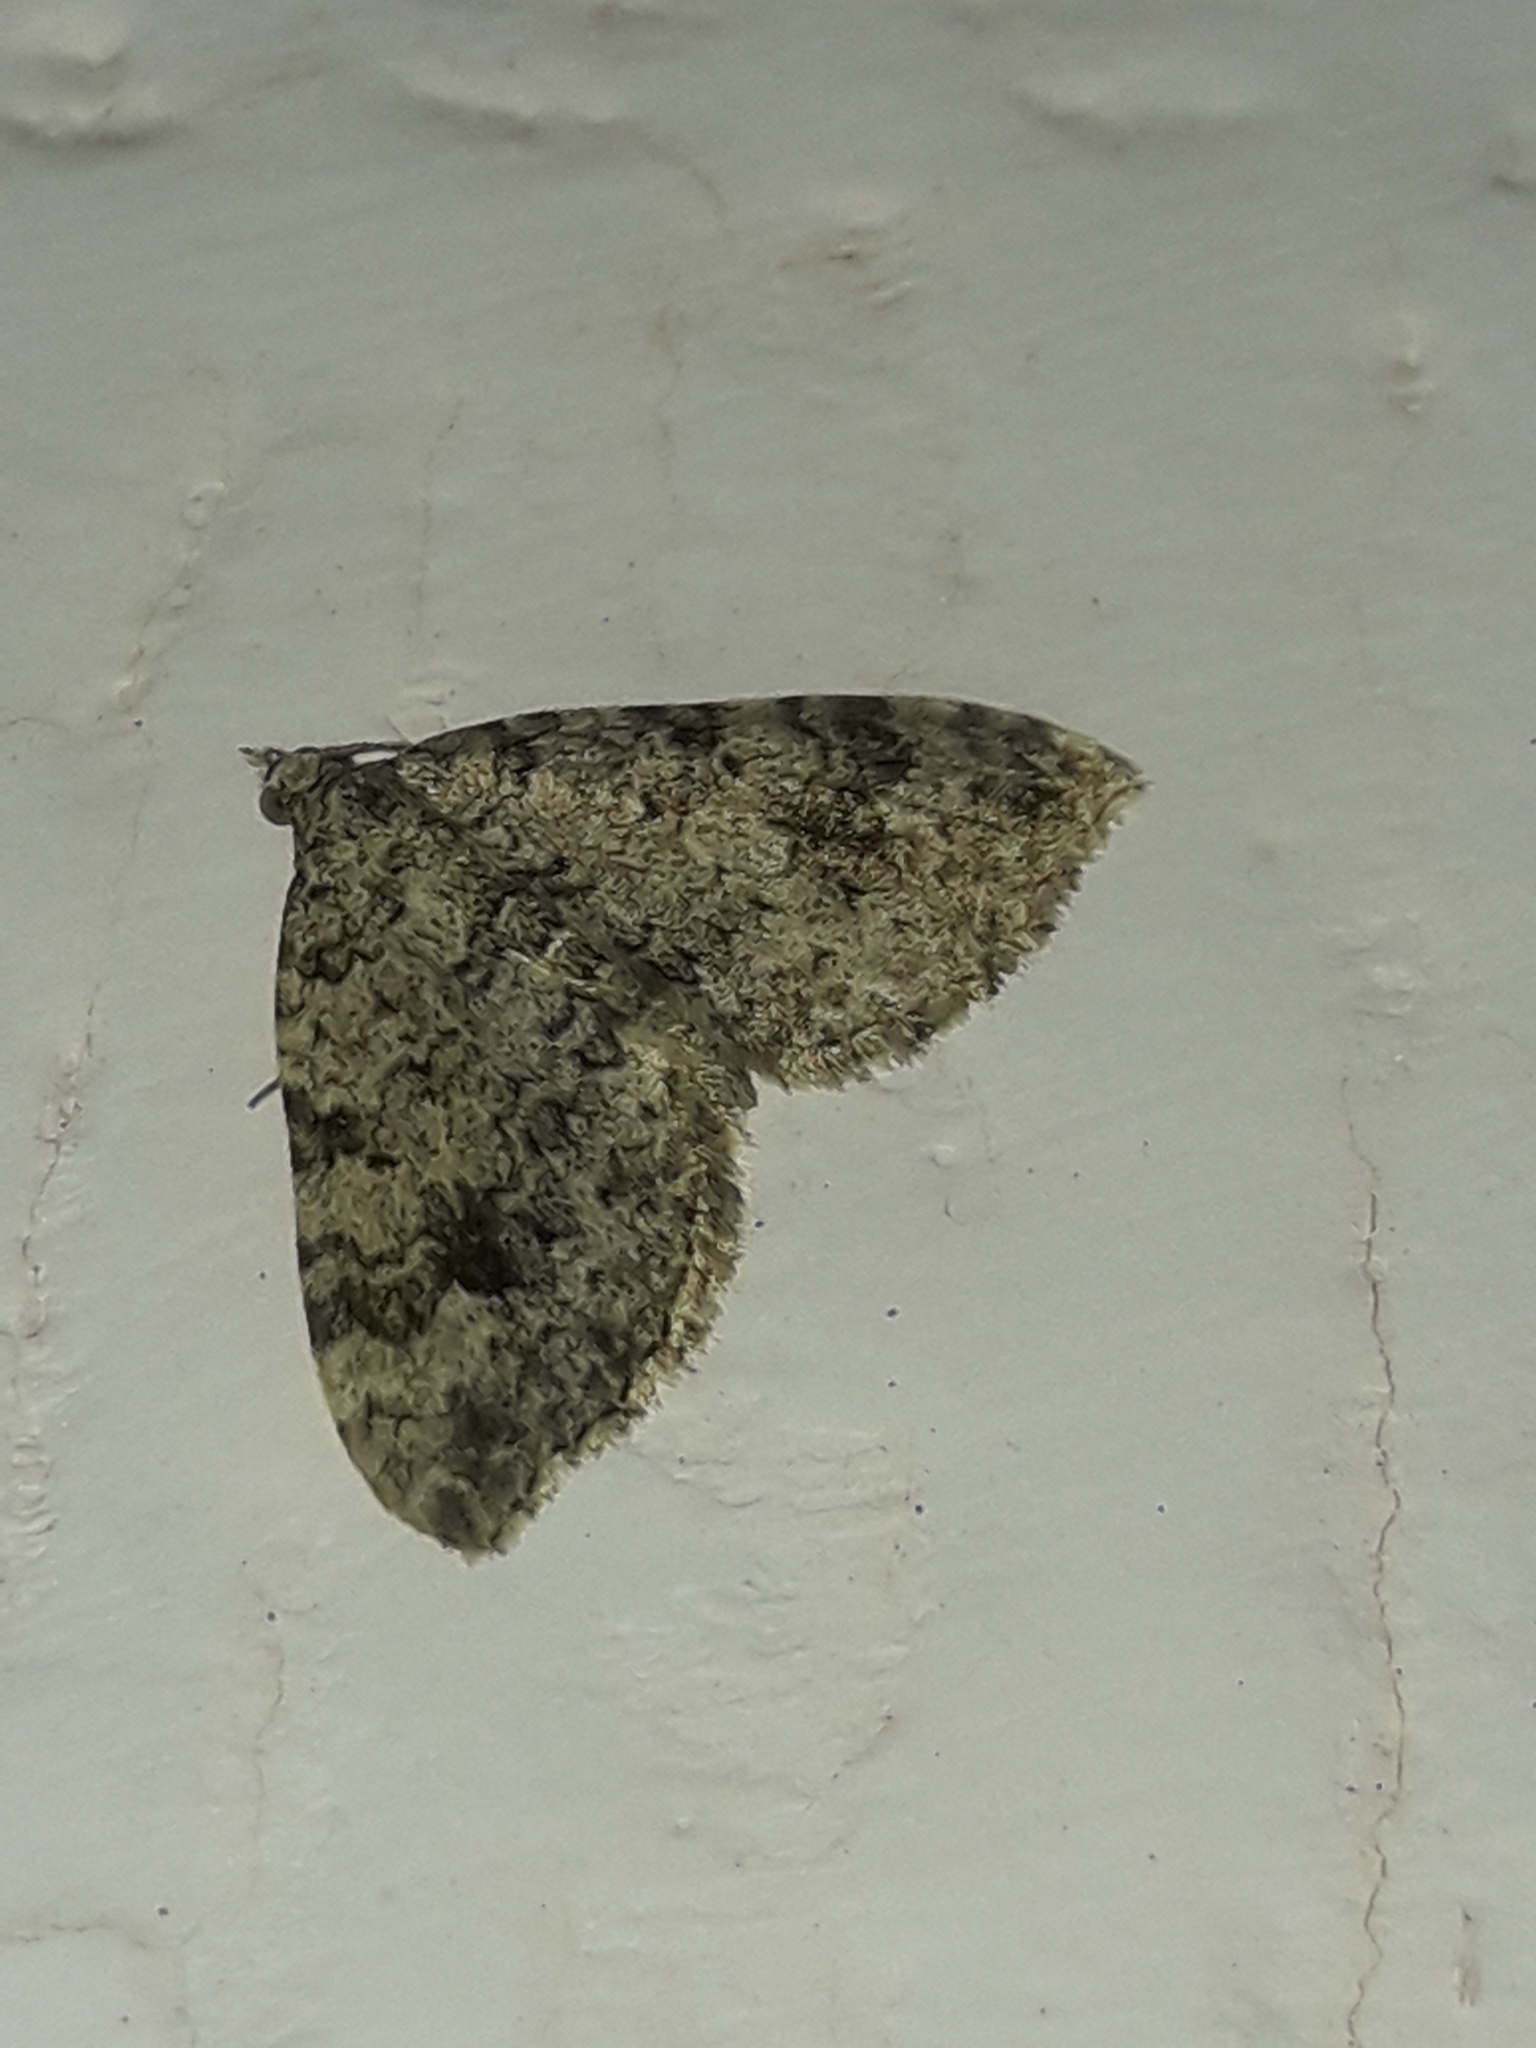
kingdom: Animalia
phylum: Arthropoda
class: Insecta
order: Lepidoptera
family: Geometridae
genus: Helastia
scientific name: Helastia cinerearia
